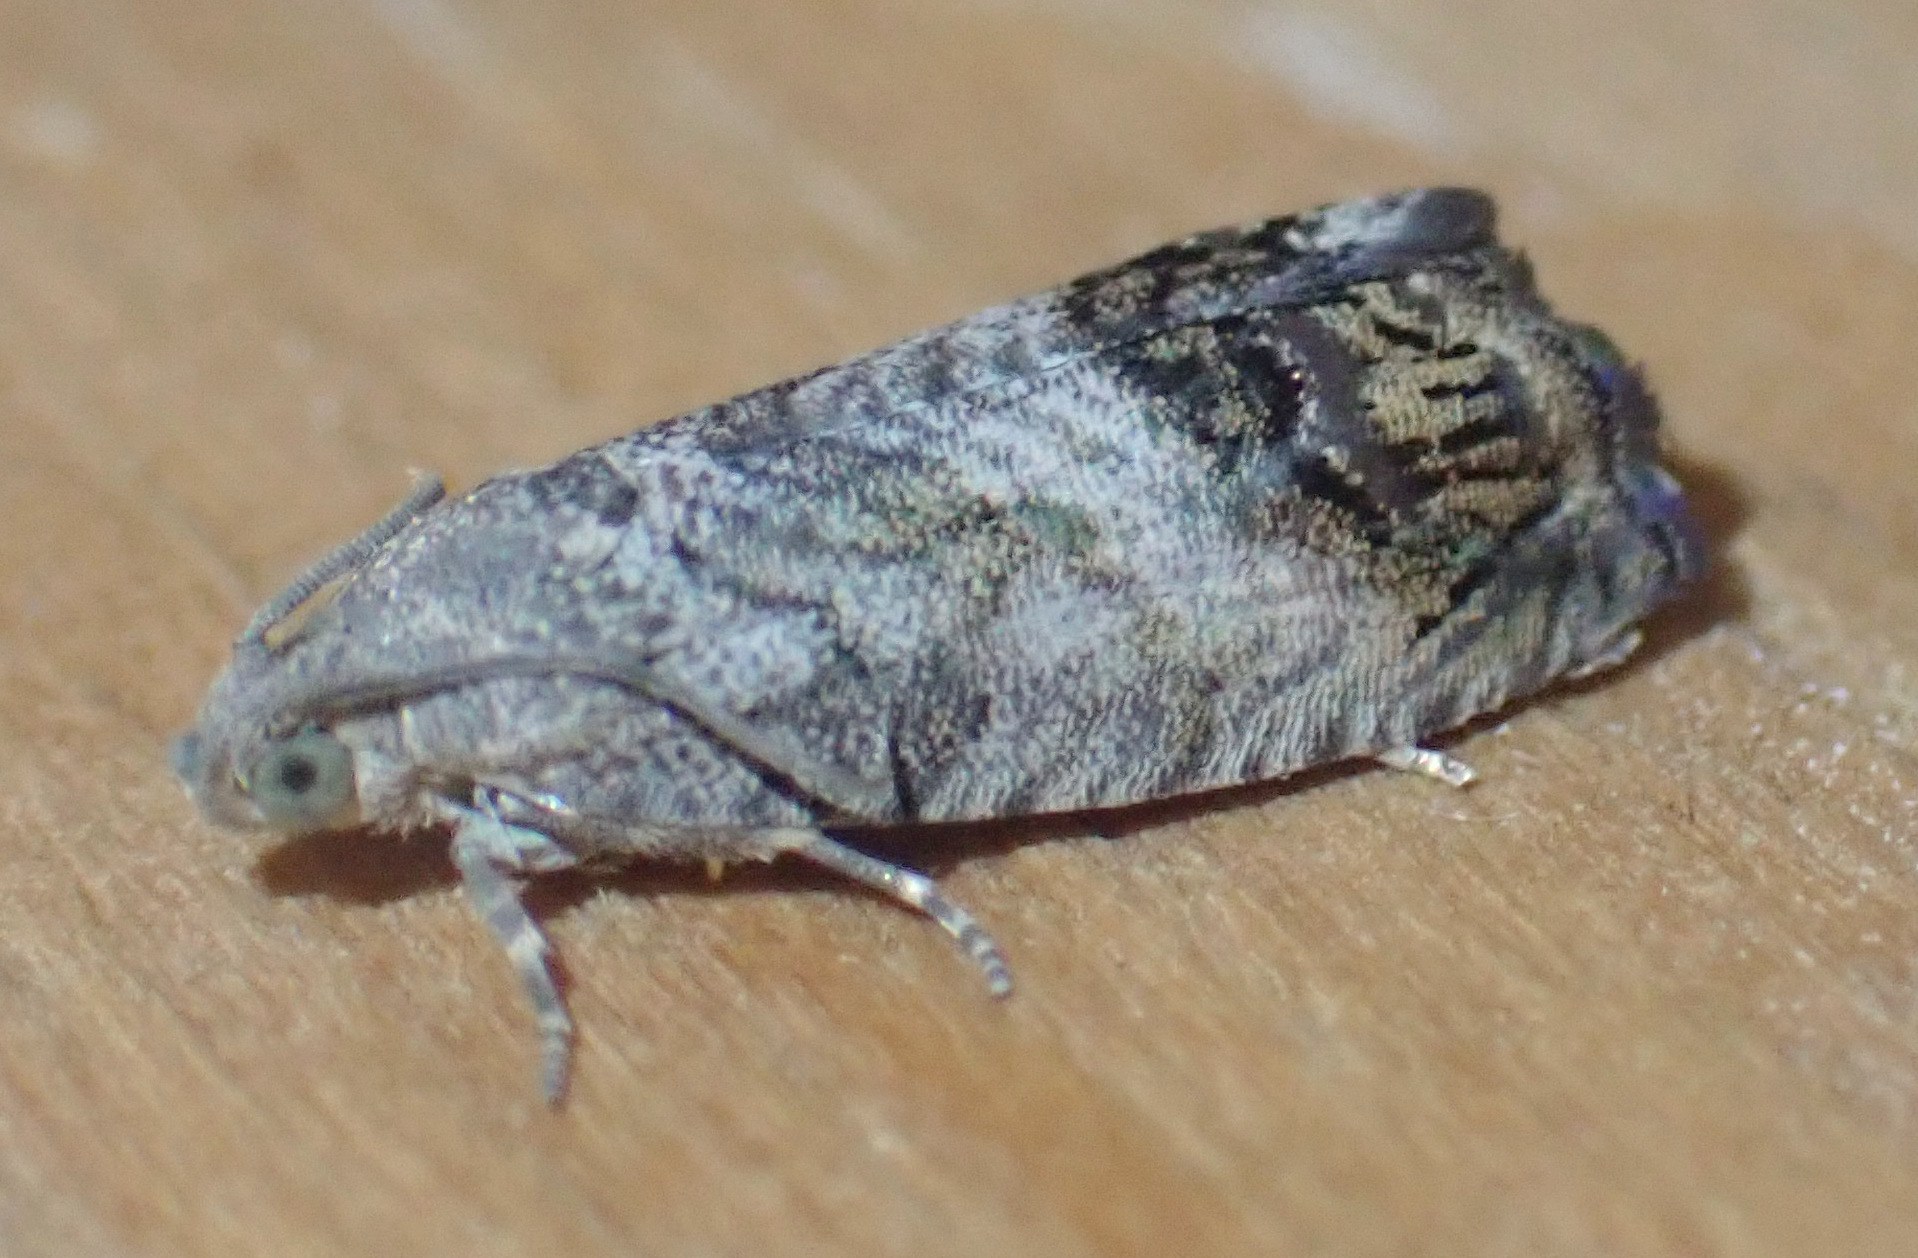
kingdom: Animalia
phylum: Arthropoda
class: Insecta
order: Lepidoptera
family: Tortricidae
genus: Cydia
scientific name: Cydia splendana
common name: De: kastanienwickler, eichenwickler es: oruga de la castaña fr: carpocapse des châtaignes it: cidia o tortrice tardiva delle castagne pt: bichado das castanhas gb: acorn moth, chestnut fruit tortrix
